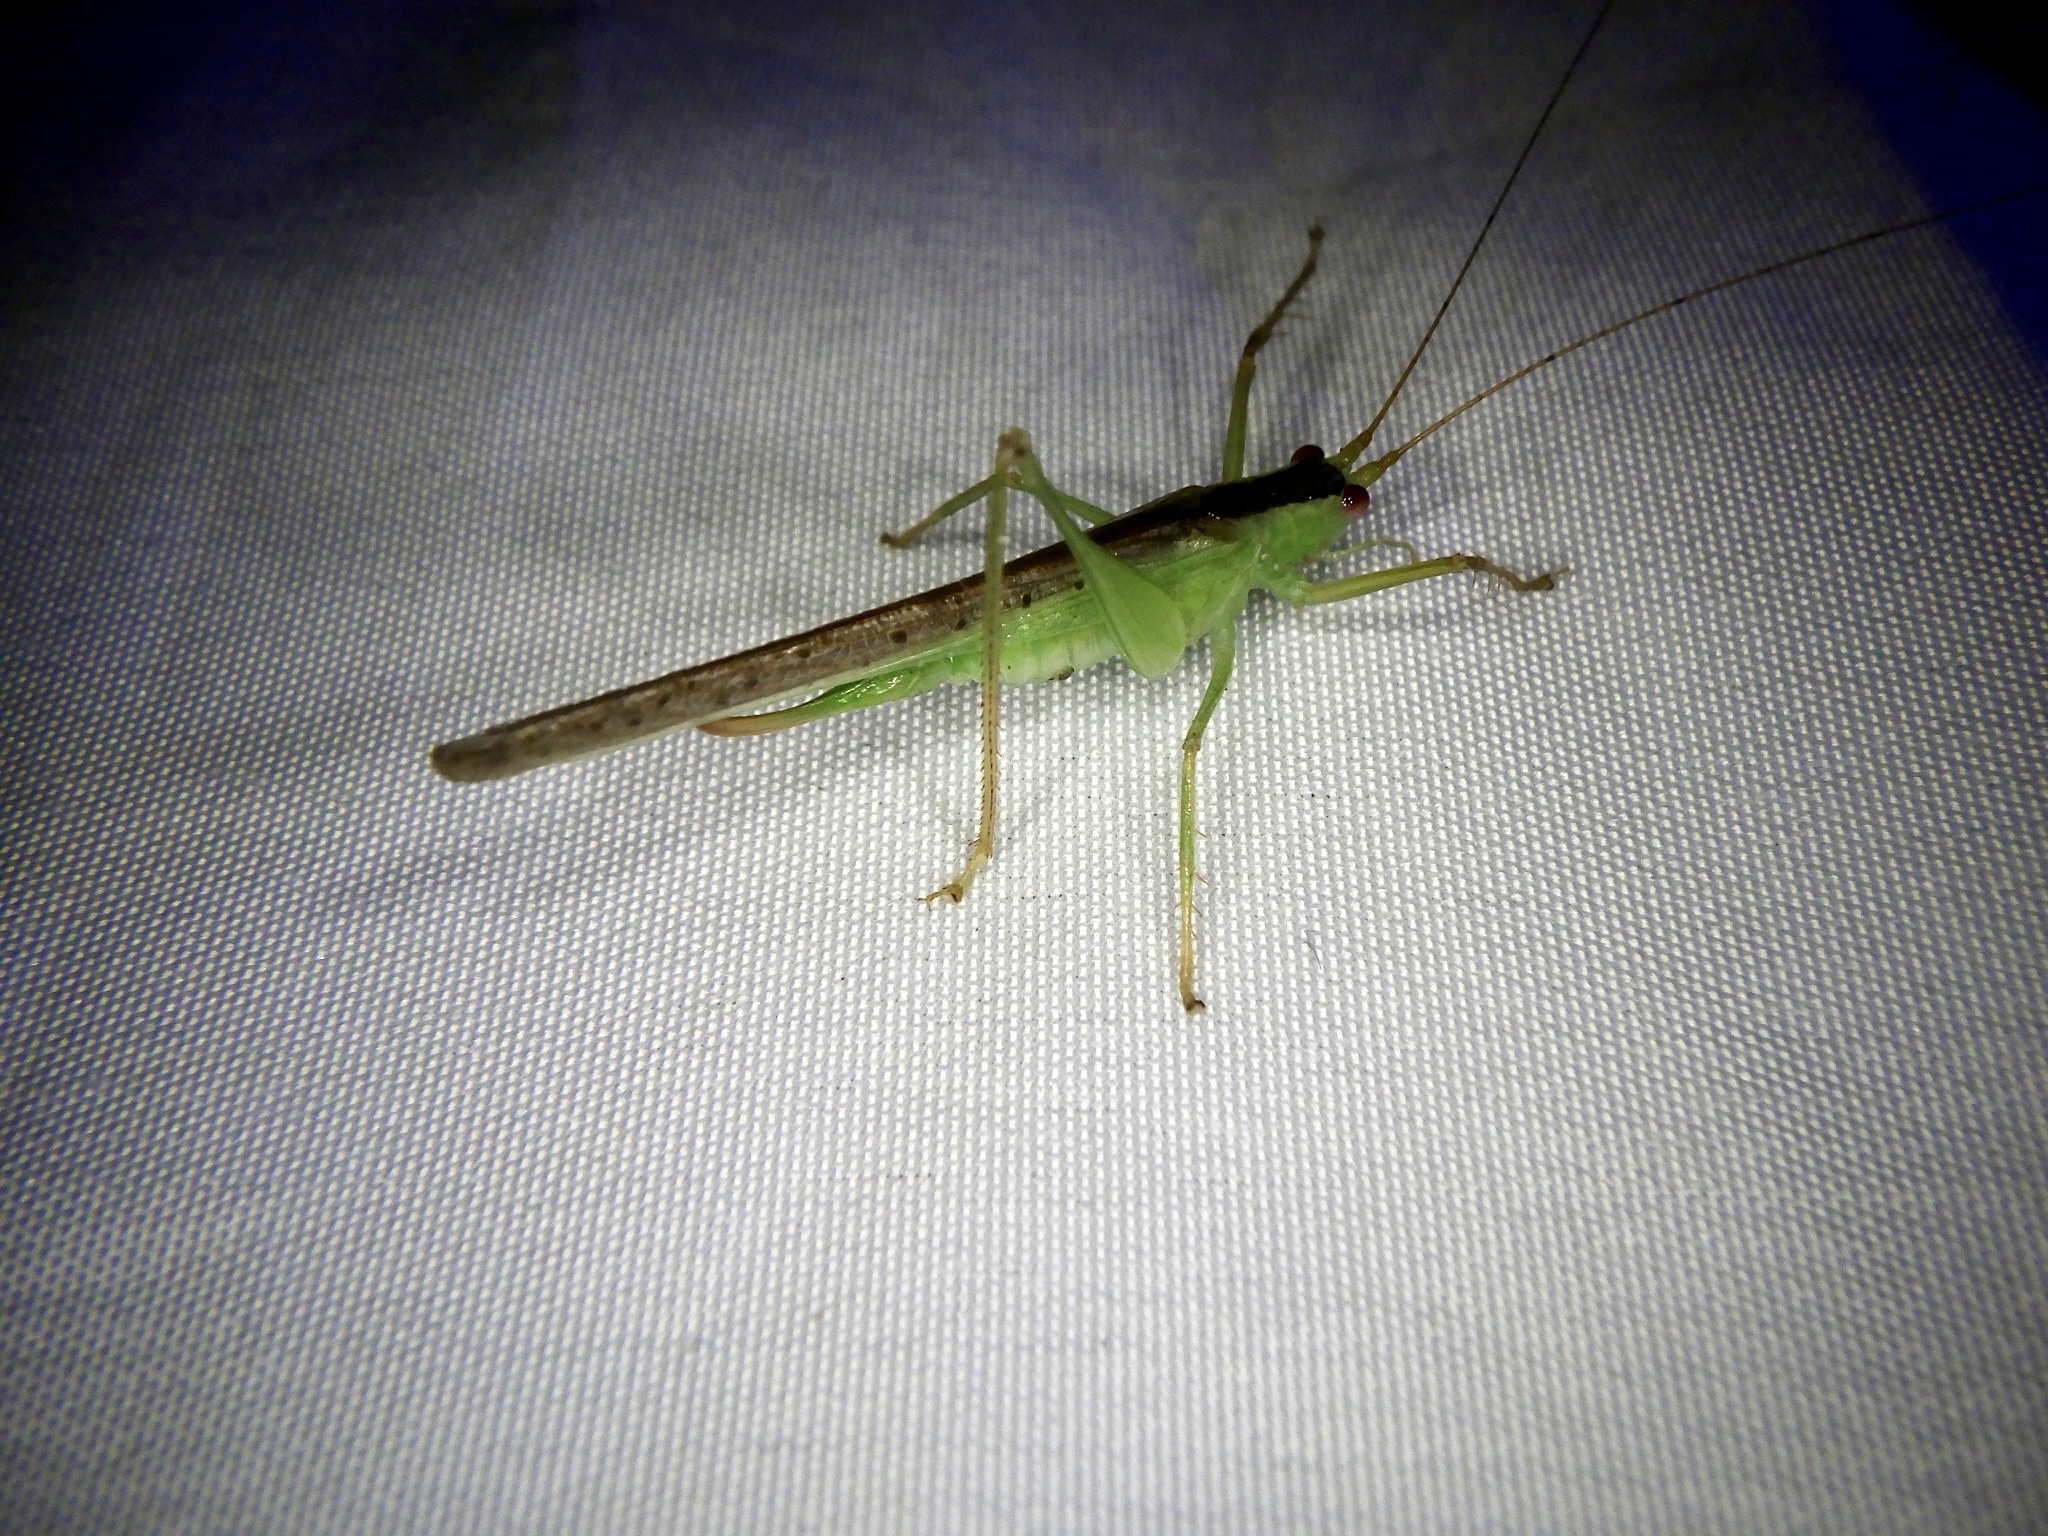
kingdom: Animalia
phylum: Arthropoda
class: Insecta
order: Orthoptera
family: Tettigoniidae
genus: Xiphidiopsis
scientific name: Xiphidiopsis subpunctata
